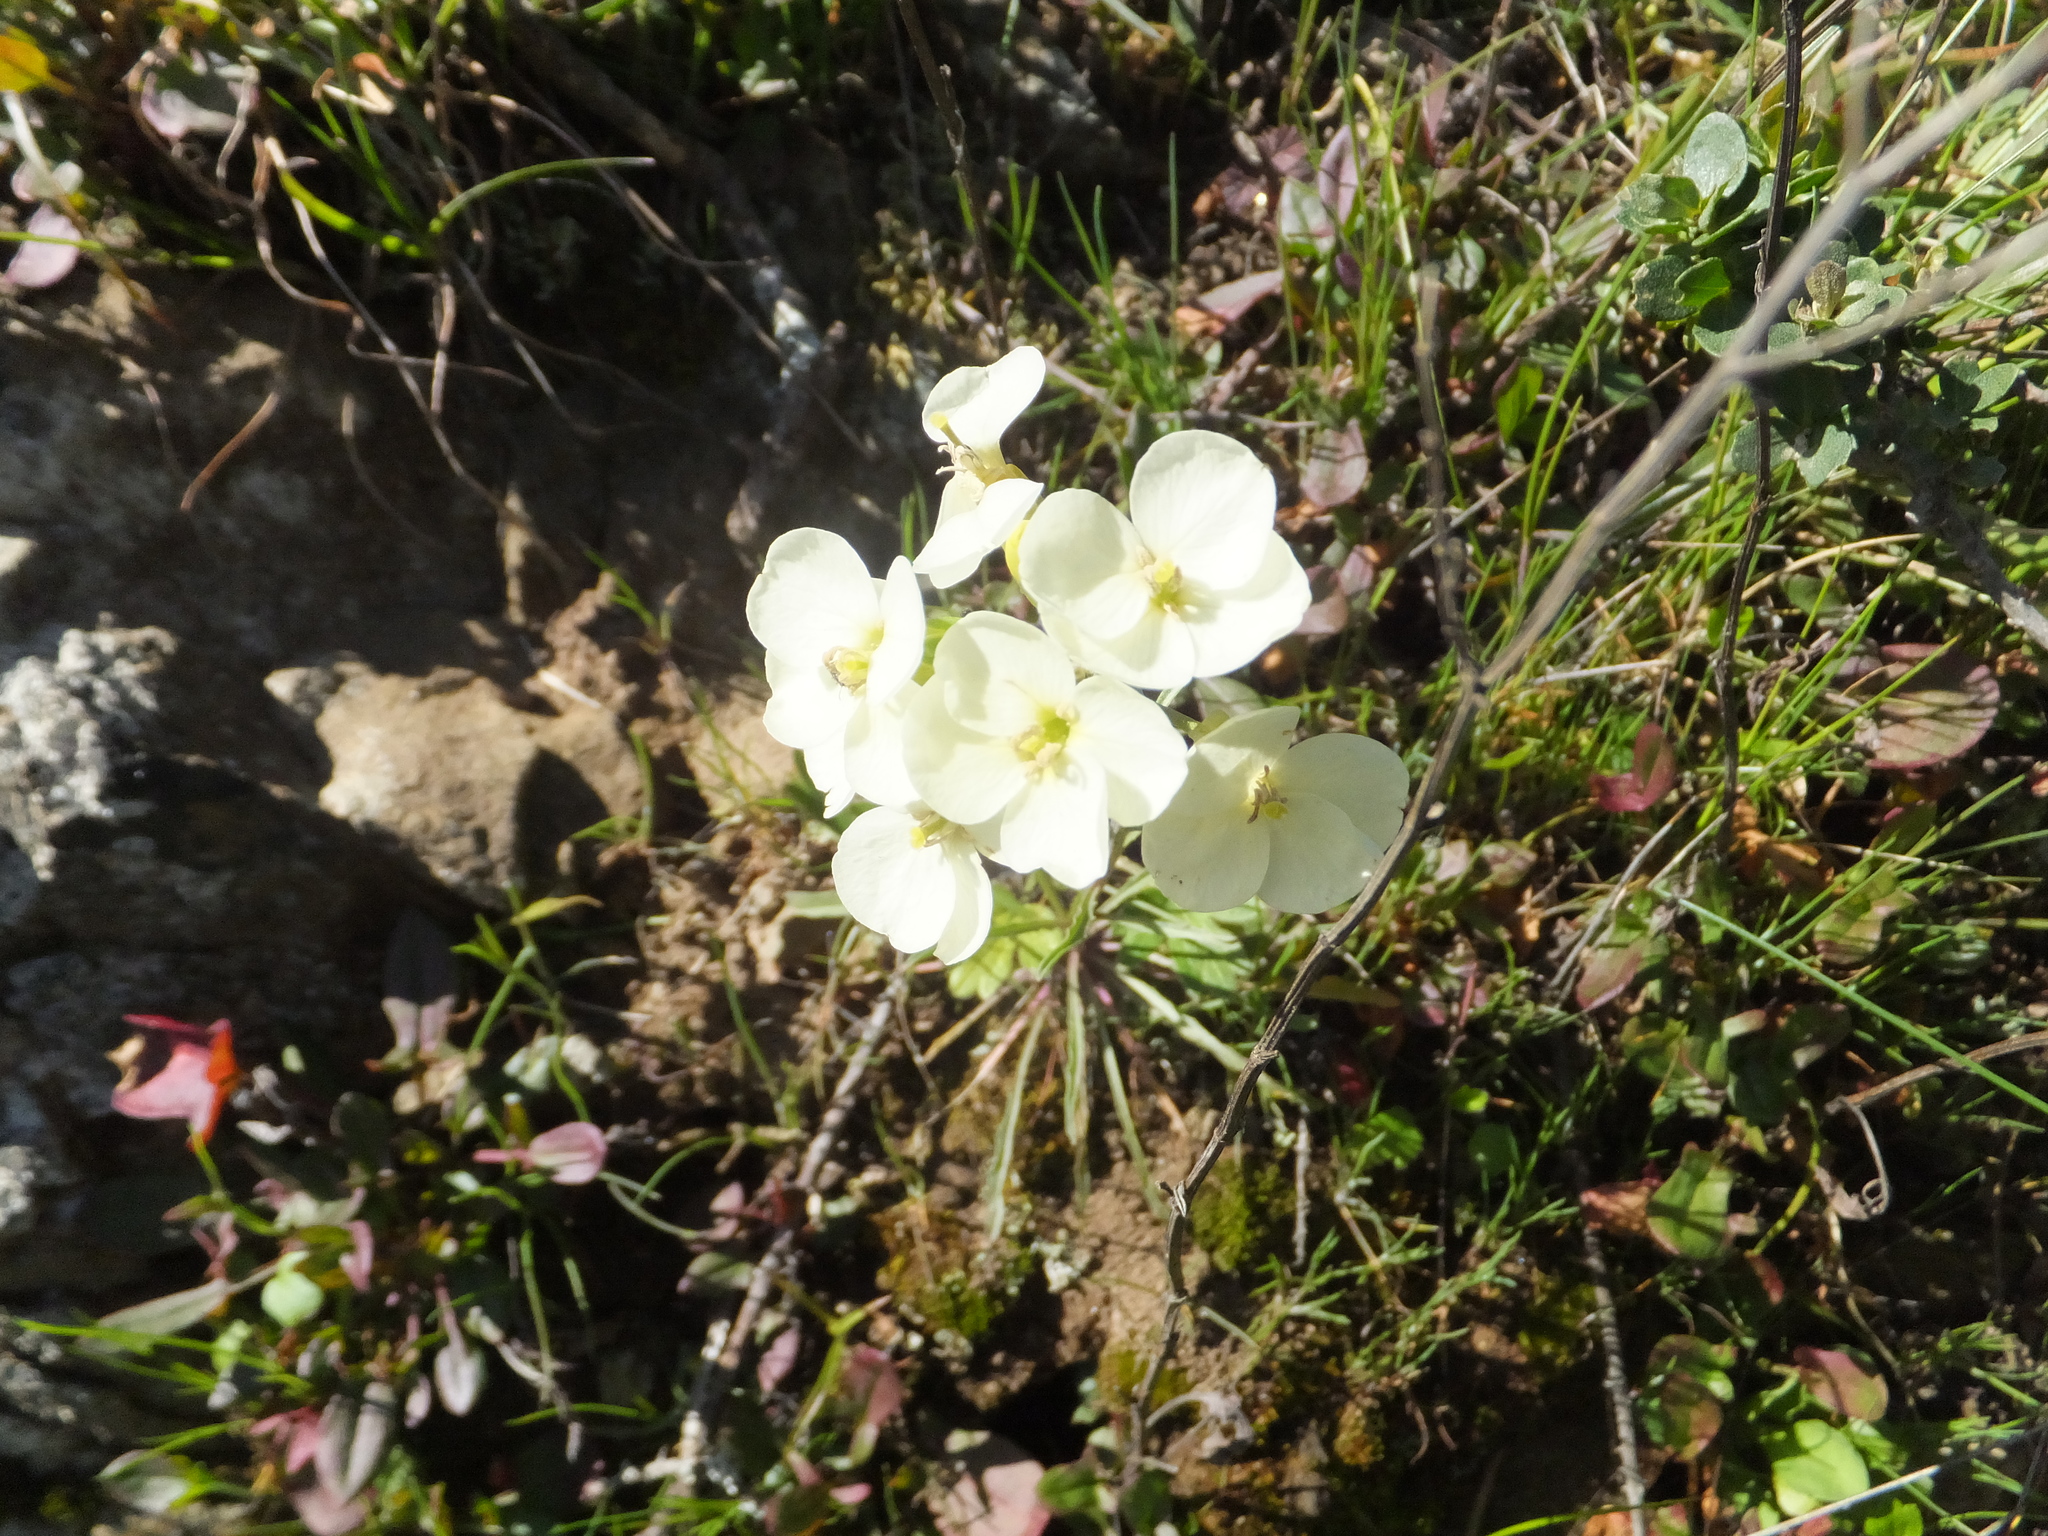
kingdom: Plantae
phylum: Tracheophyta
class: Magnoliopsida
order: Brassicales
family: Brassicaceae
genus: Erysimum
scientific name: Erysimum franciscanum
